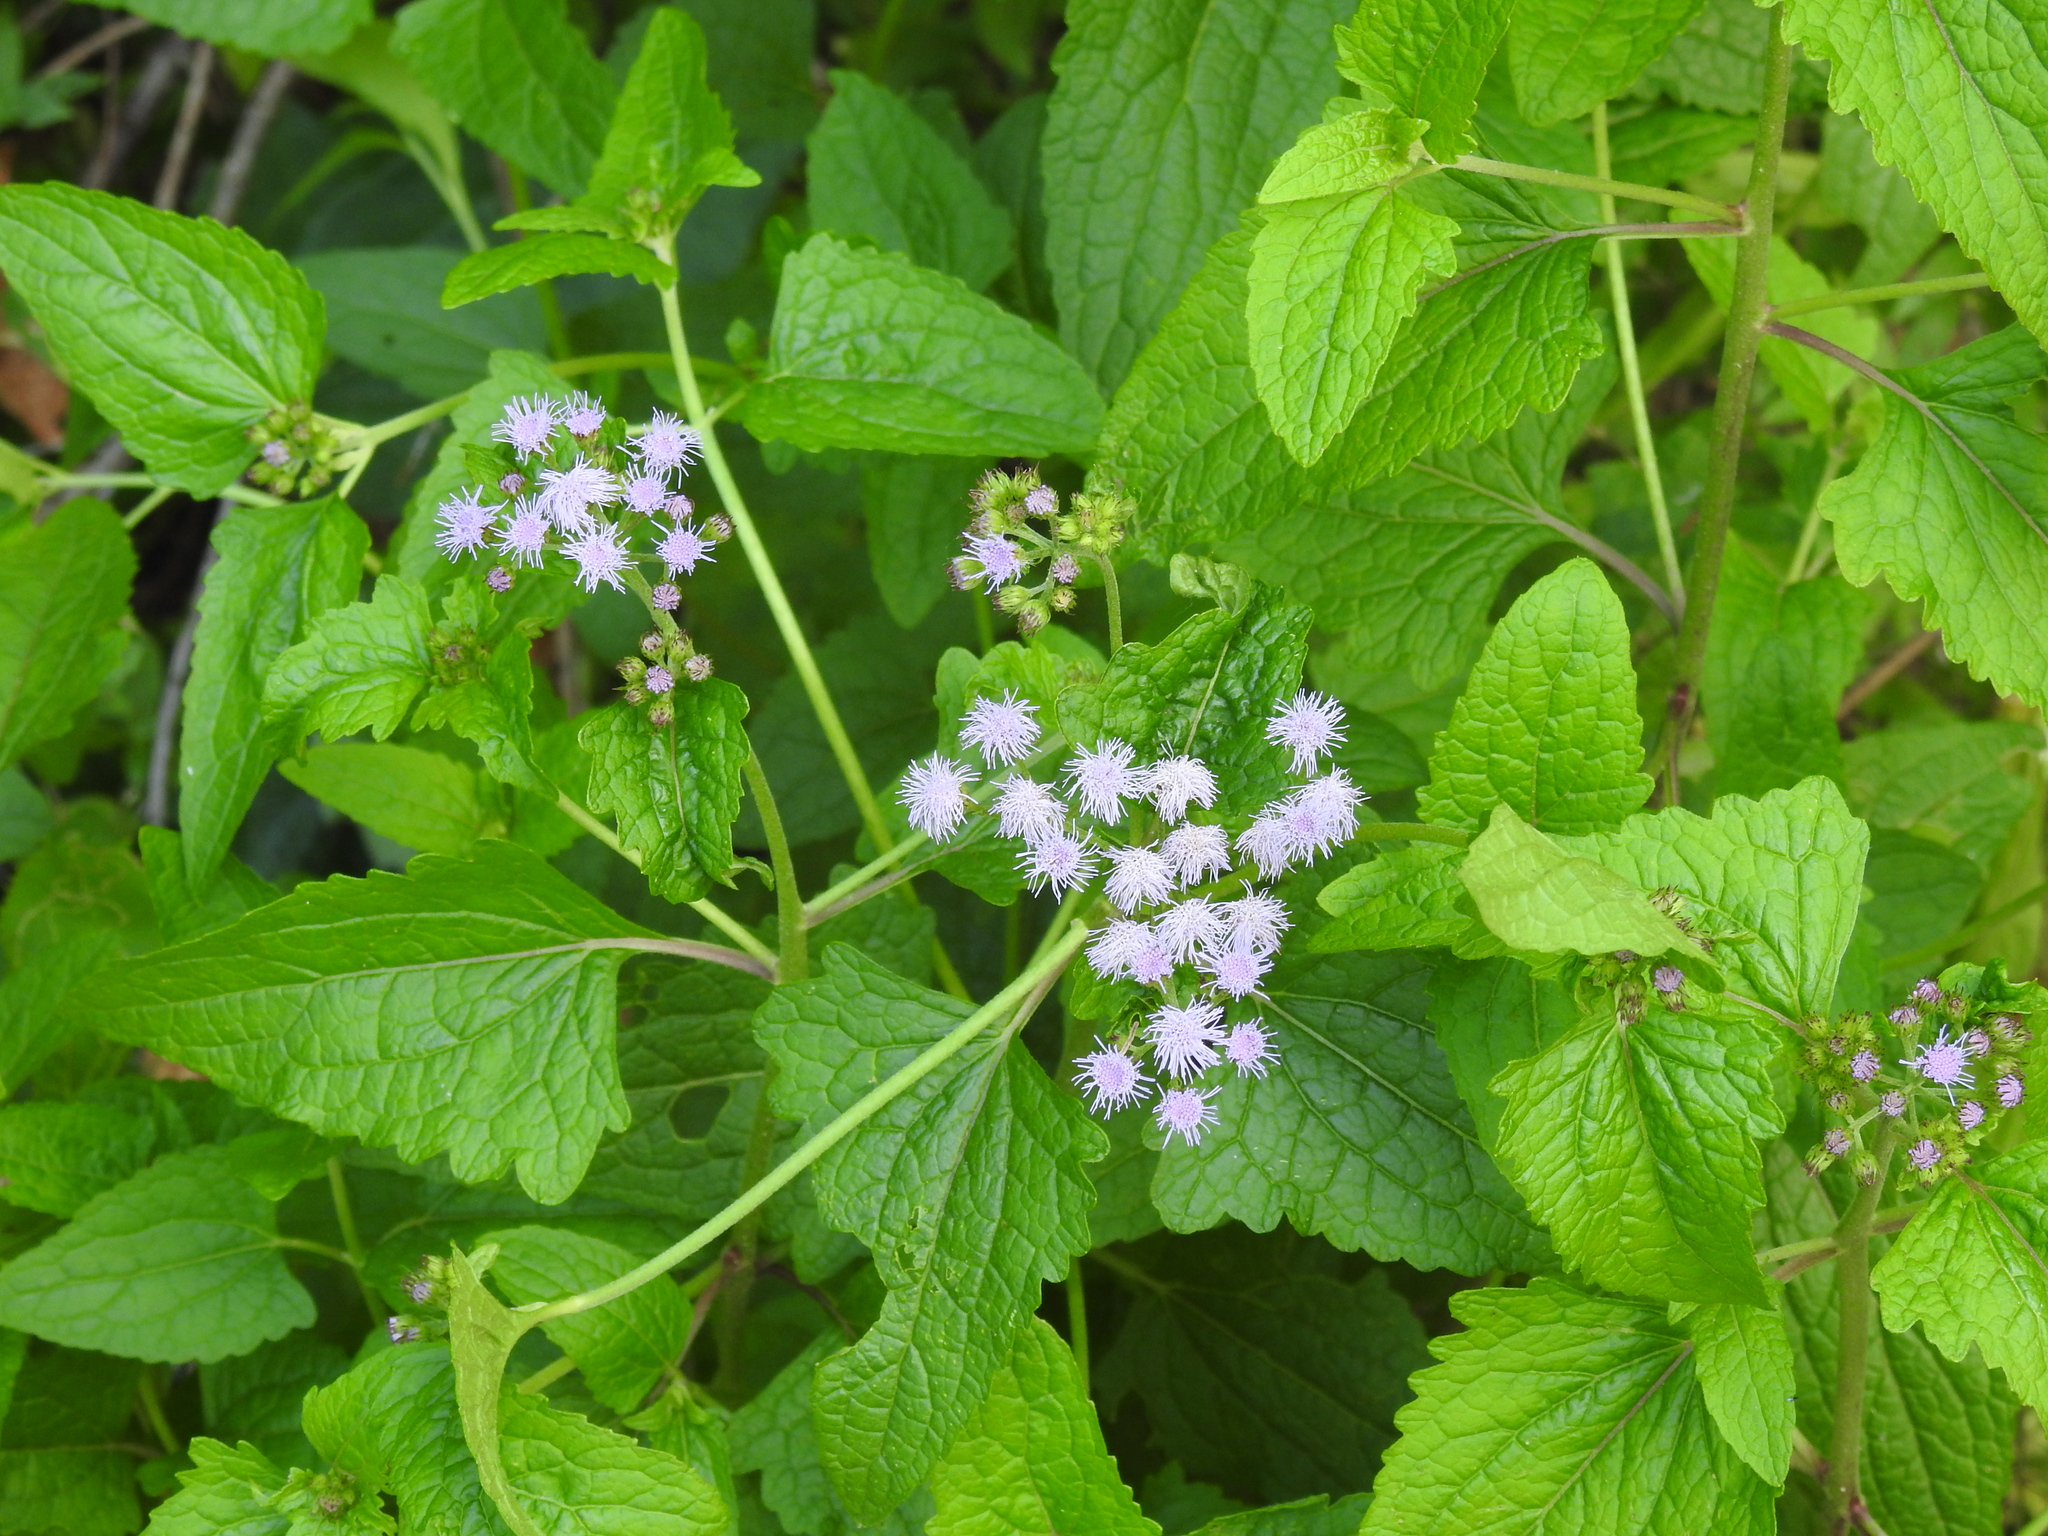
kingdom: Plantae
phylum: Tracheophyta
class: Magnoliopsida
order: Asterales
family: Asteraceae
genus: Conoclinium
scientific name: Conoclinium coelestinum
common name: Blue mistflower
